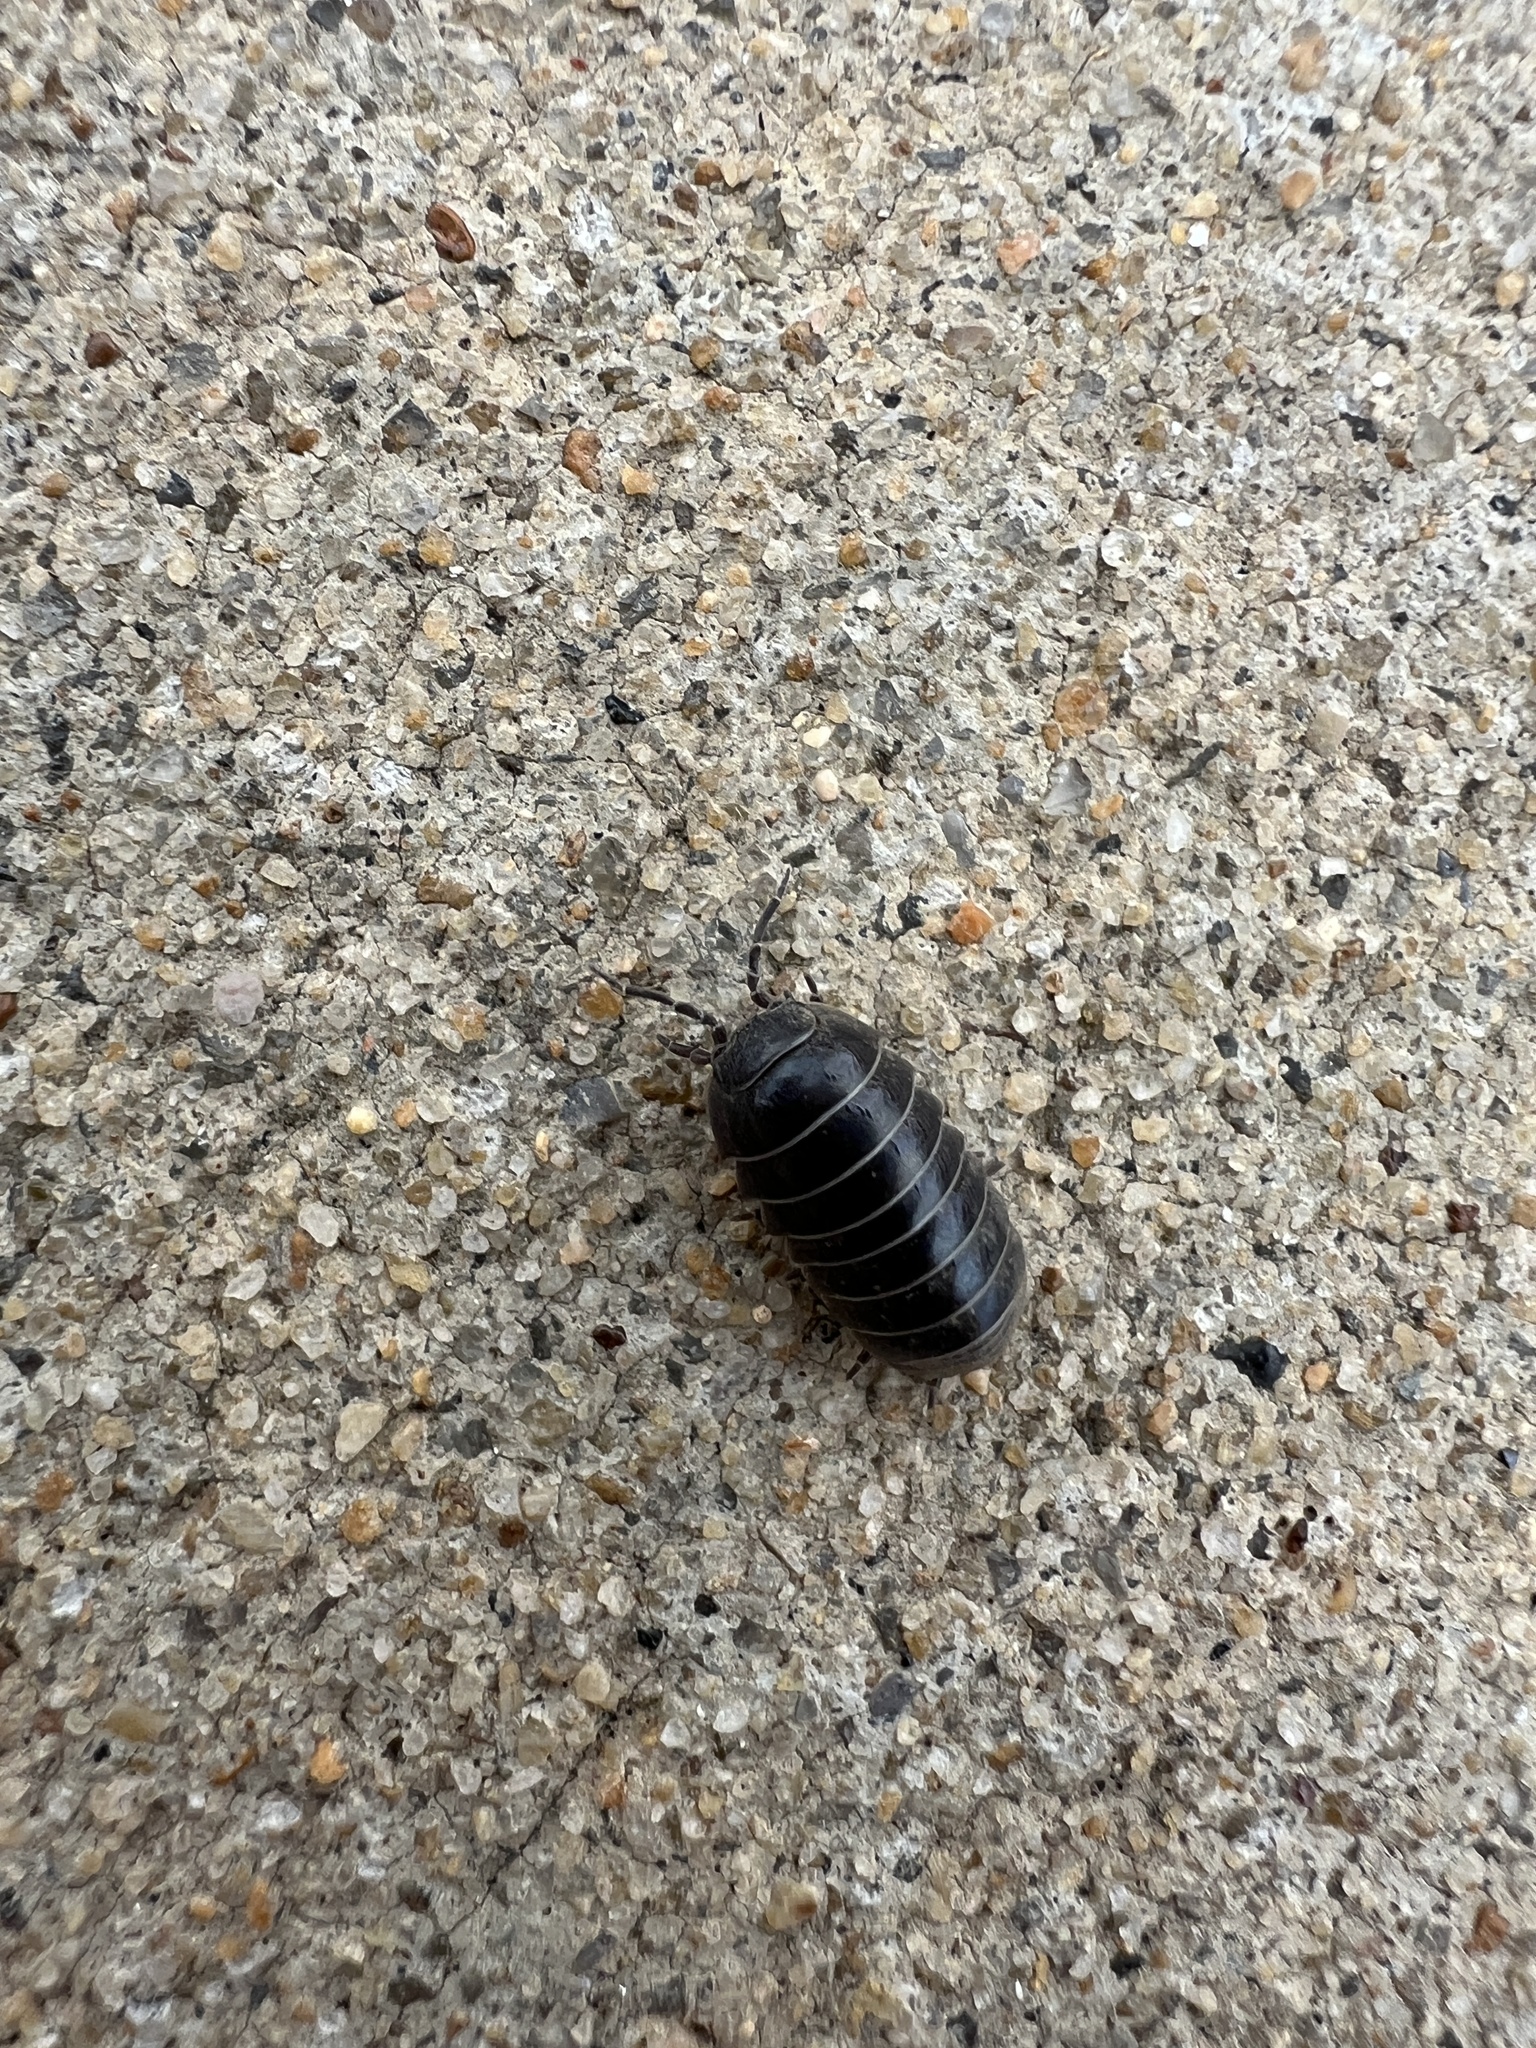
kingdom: Animalia
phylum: Arthropoda
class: Malacostraca
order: Isopoda
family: Armadillidiidae
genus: Armadillidium
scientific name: Armadillidium vulgare
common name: Common pill woodlouse
